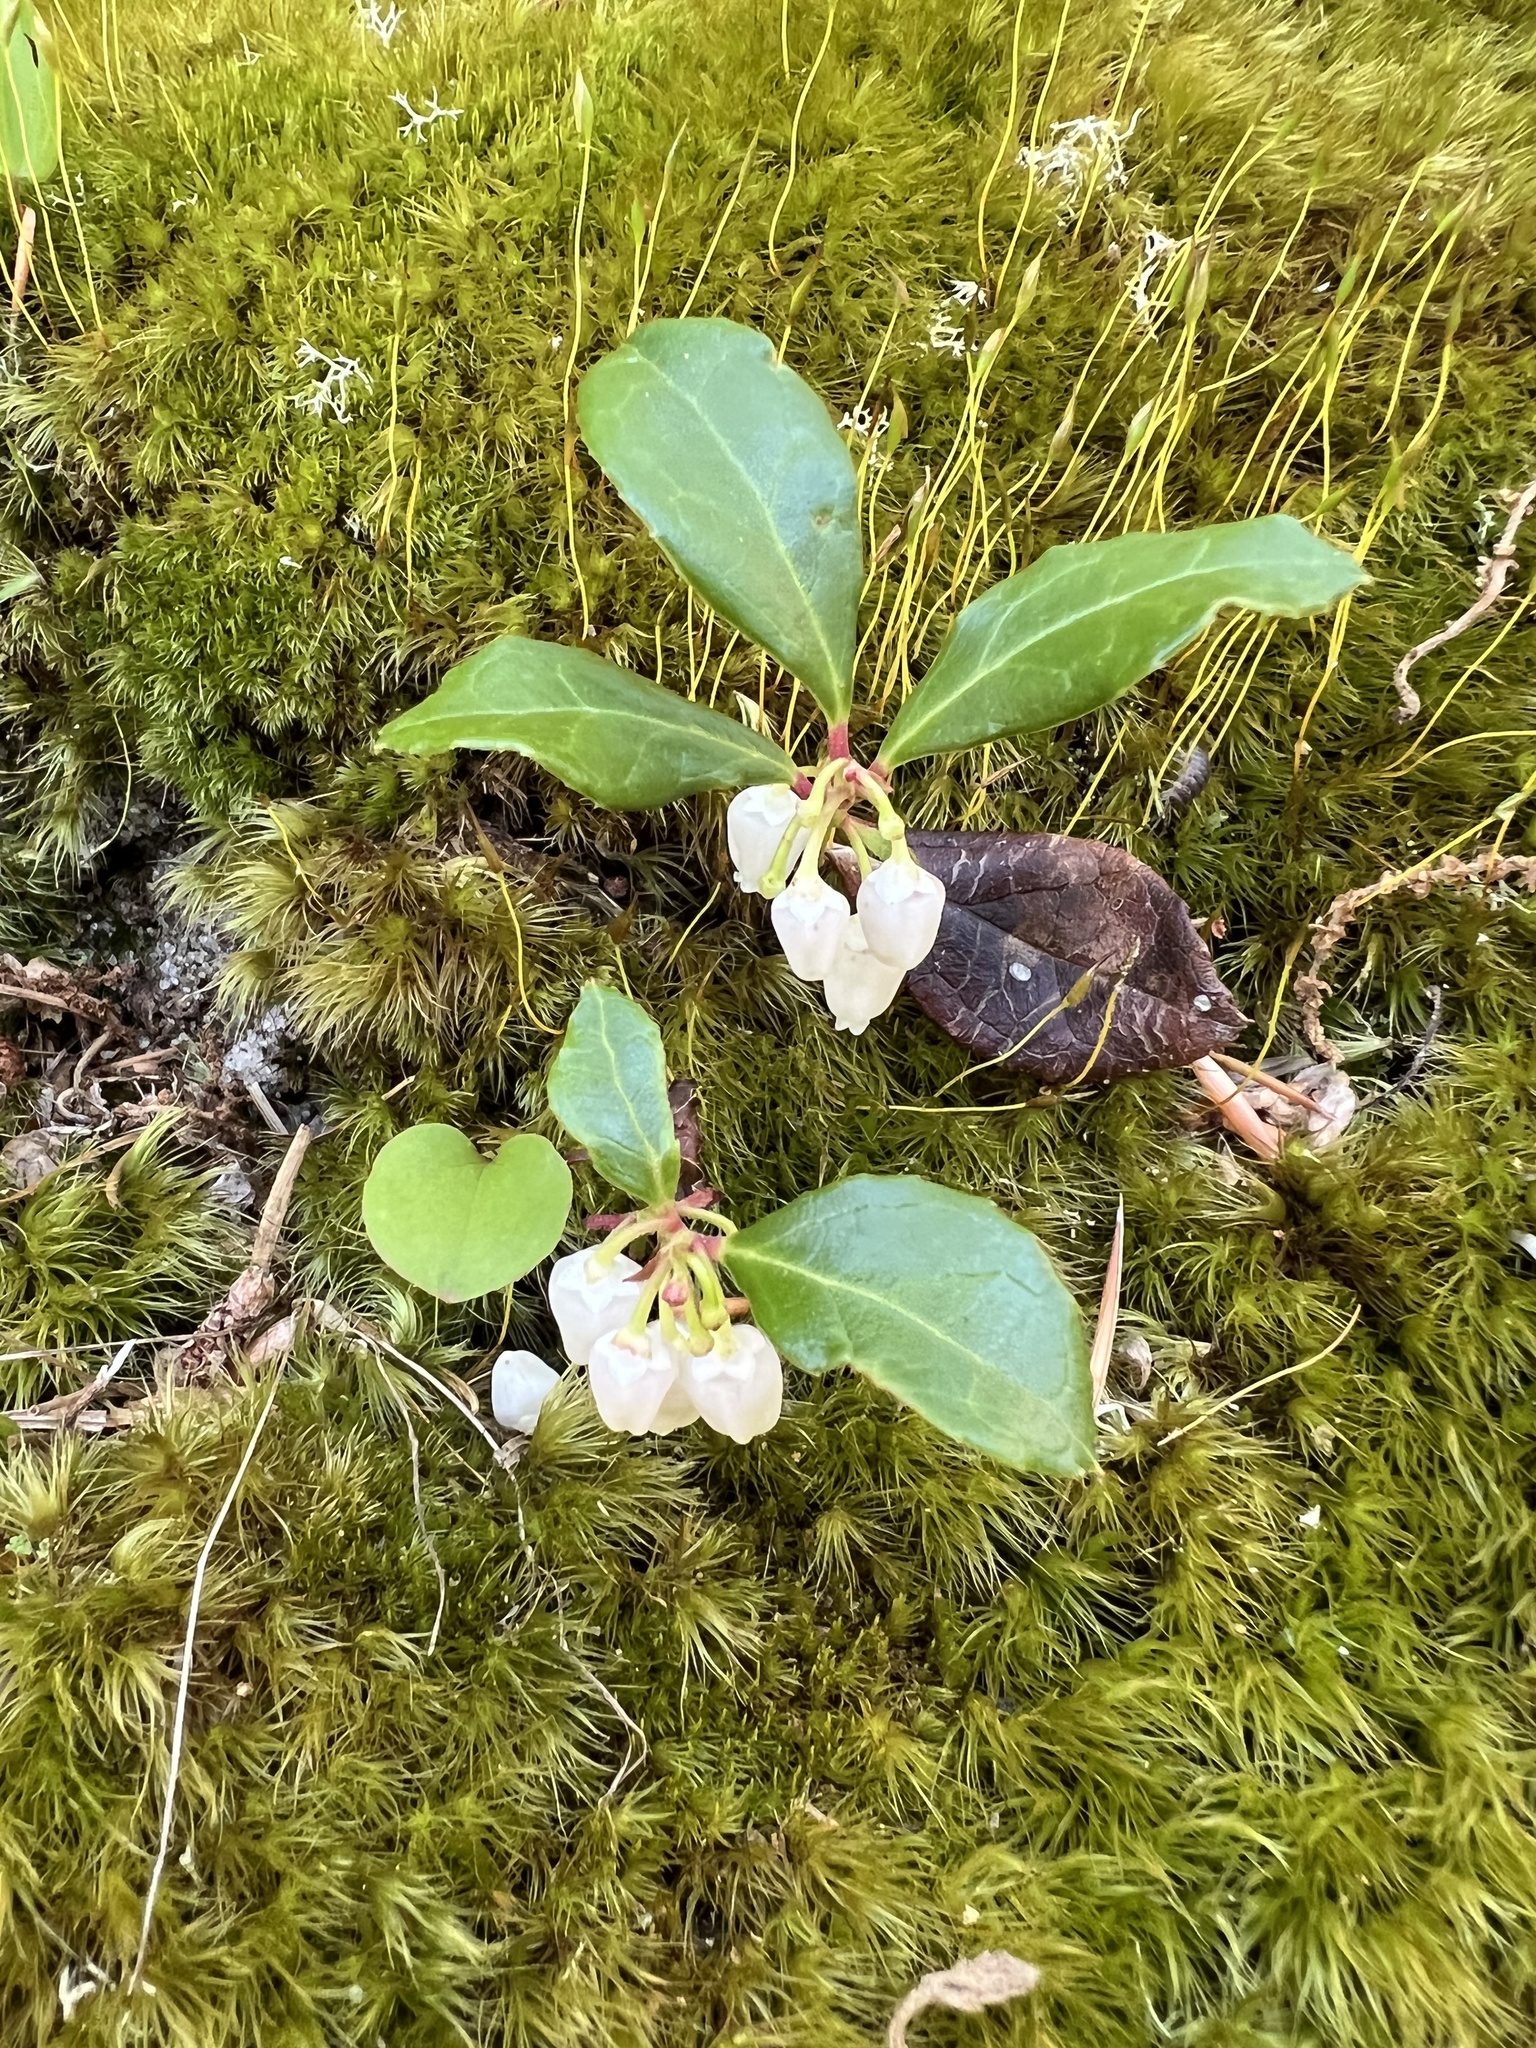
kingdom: Plantae
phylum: Tracheophyta
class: Magnoliopsida
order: Ericales
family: Ericaceae
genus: Gaultheria
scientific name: Gaultheria procumbens
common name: Checkerberry
